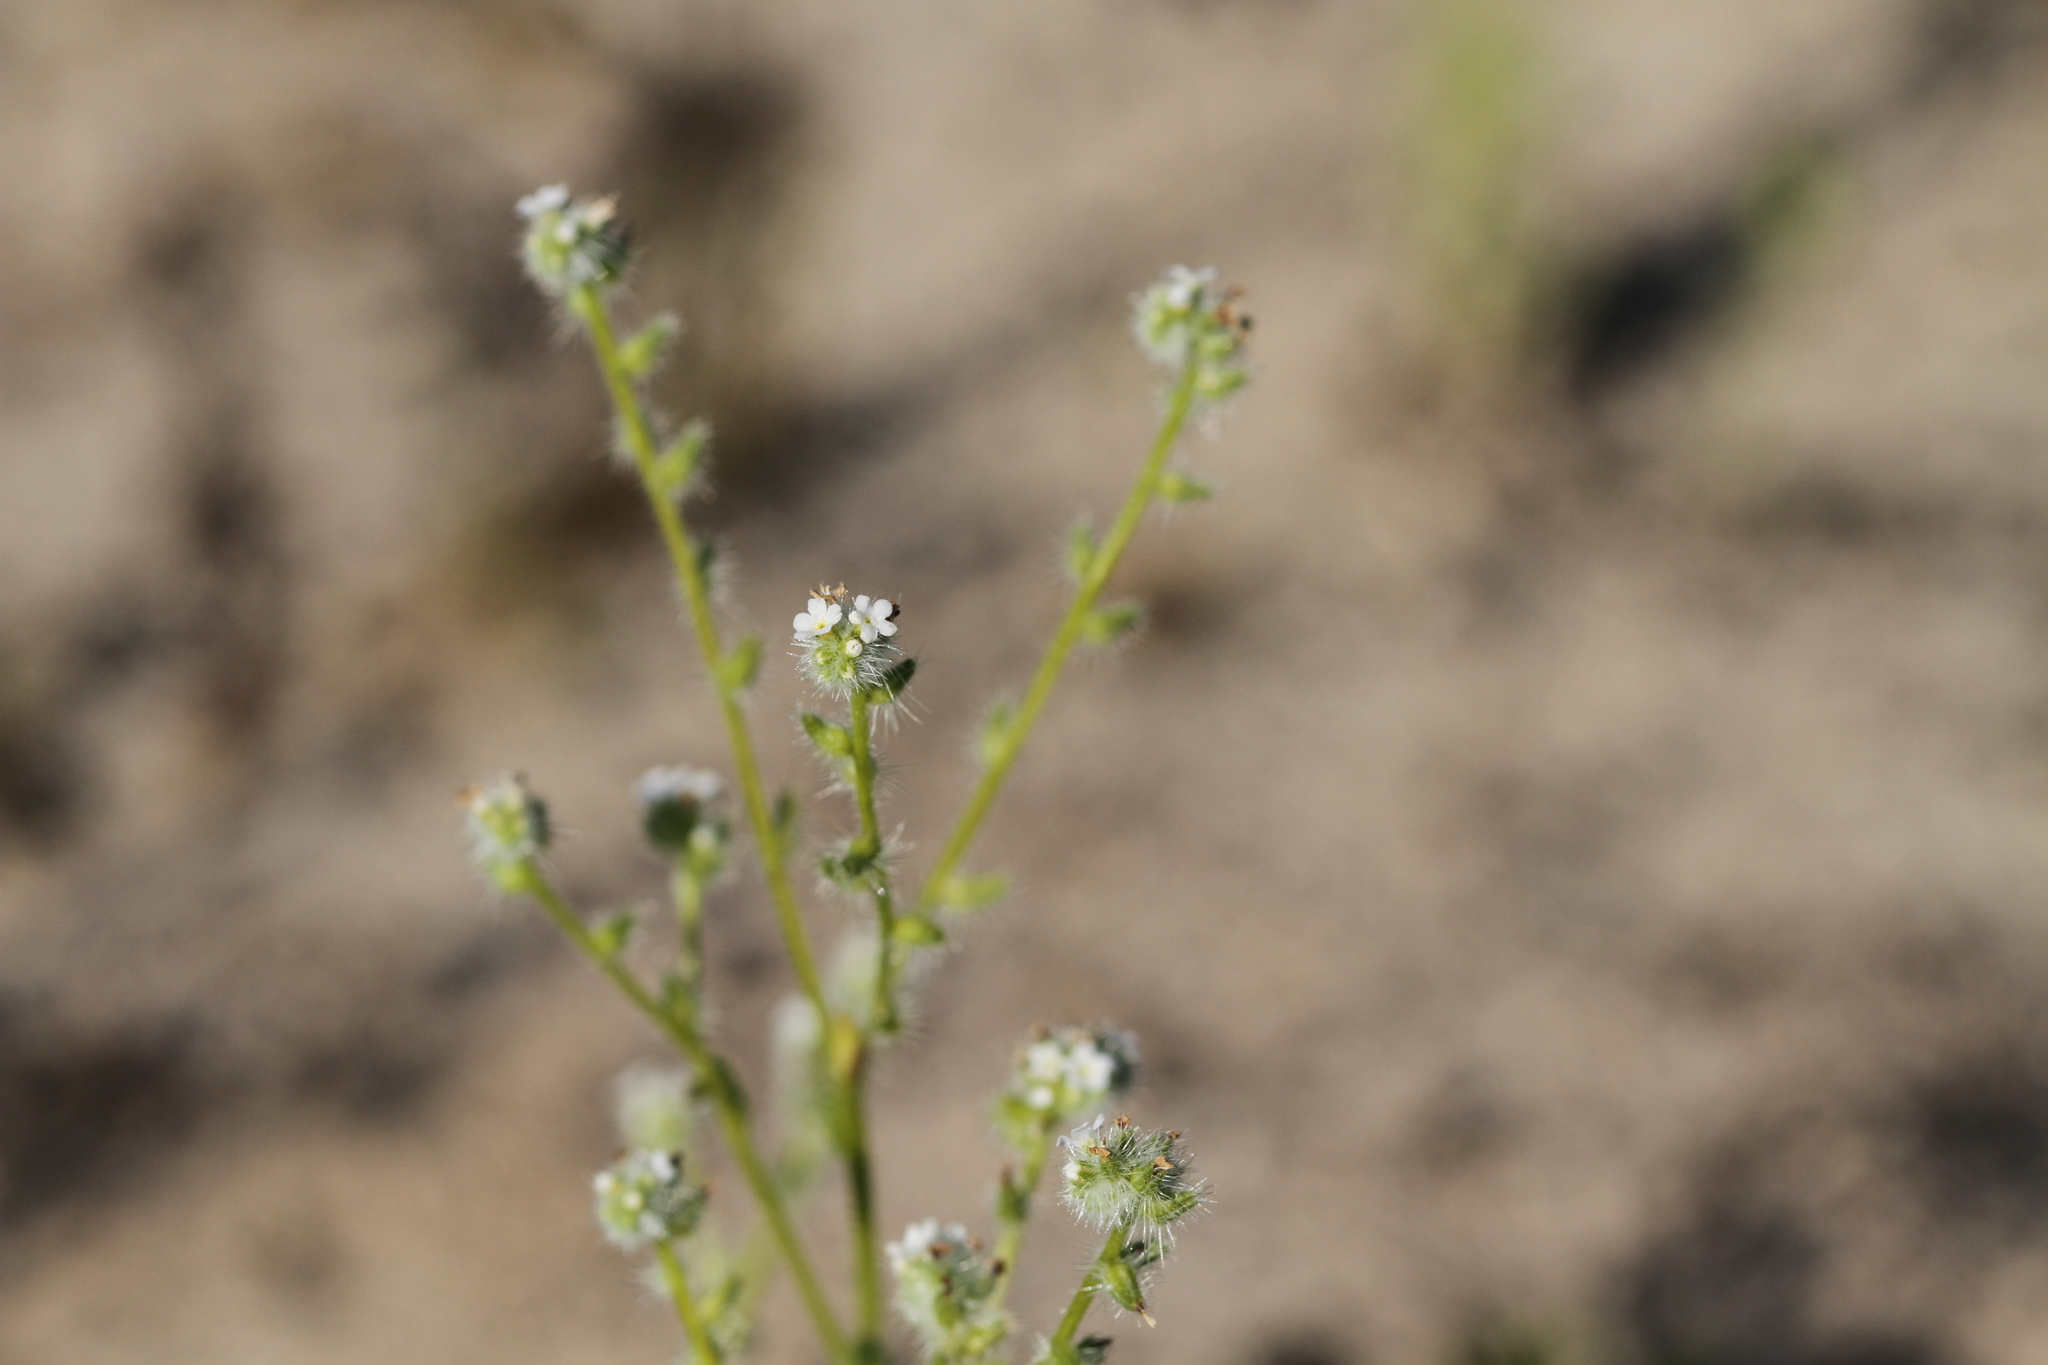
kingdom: Plantae
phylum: Tracheophyta
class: Magnoliopsida
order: Boraginales
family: Boraginaceae
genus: Cryptantha
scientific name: Cryptantha intermedia
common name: Clearwater cryptantha
